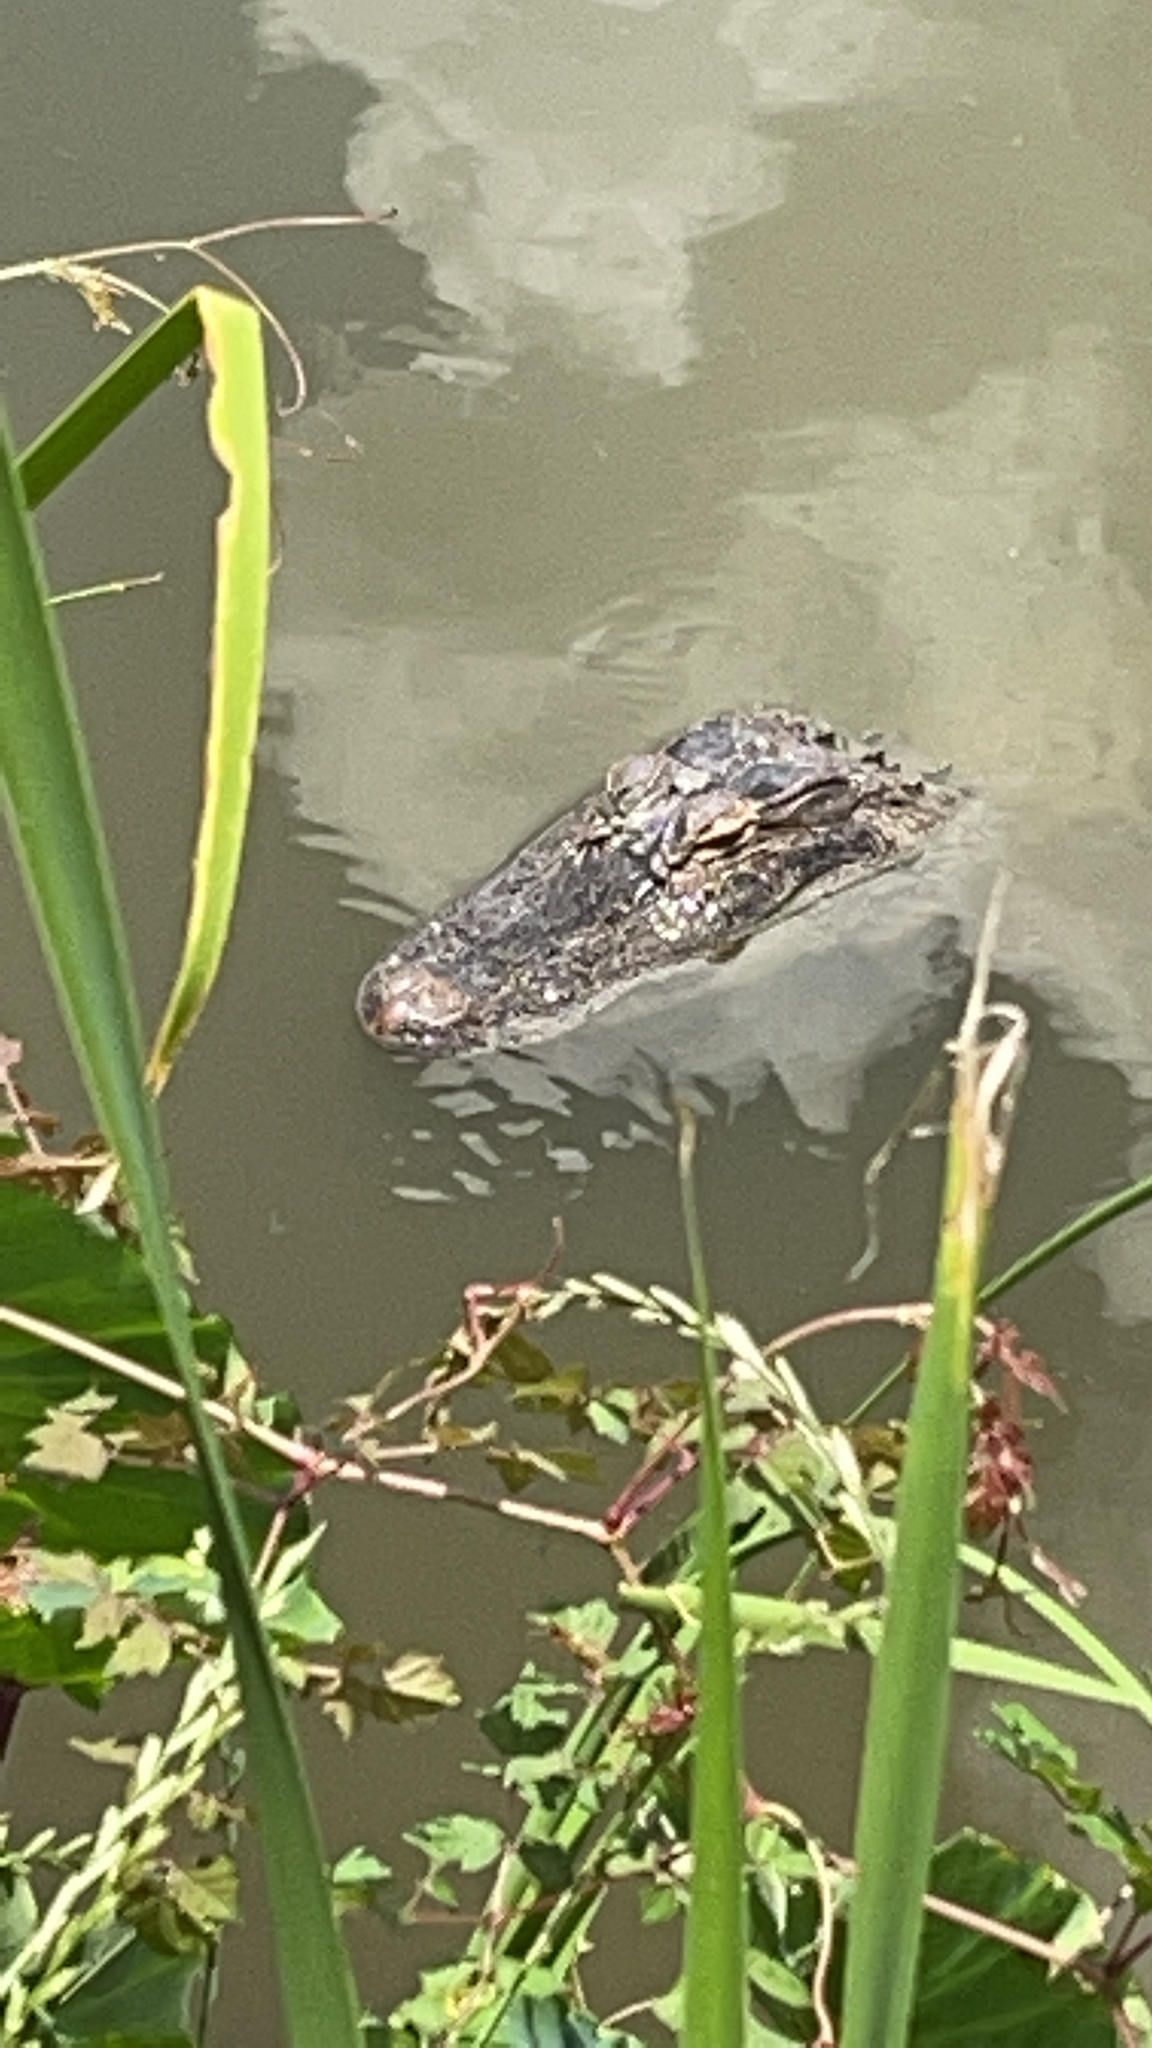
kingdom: Animalia
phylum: Chordata
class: Crocodylia
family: Alligatoridae
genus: Alligator
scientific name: Alligator mississippiensis
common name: American alligator
